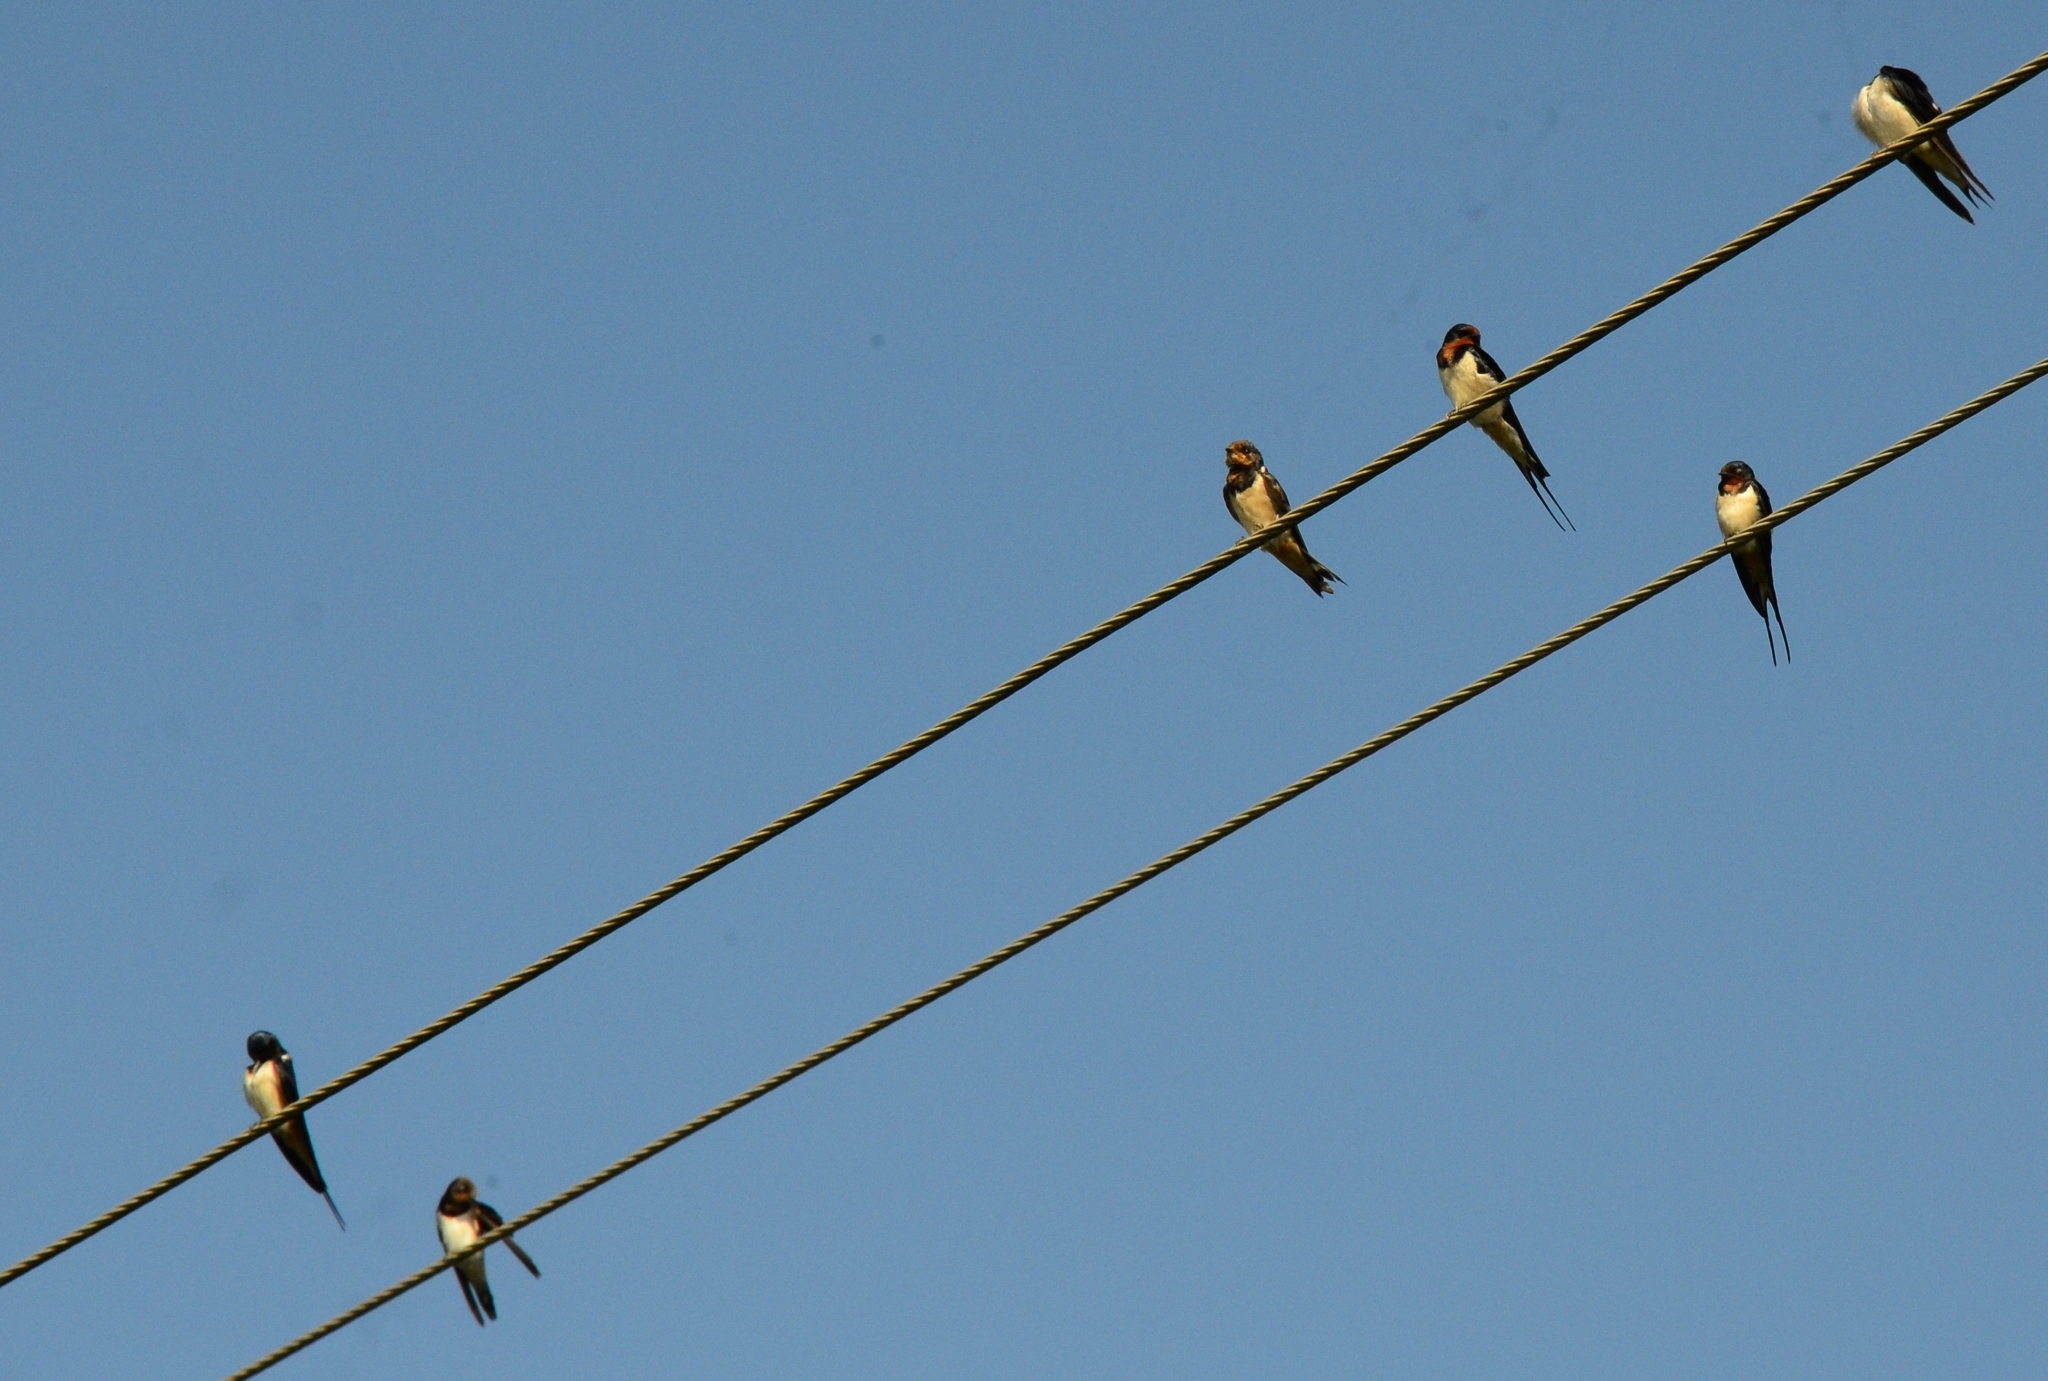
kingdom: Animalia
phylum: Chordata
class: Aves
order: Passeriformes
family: Hirundinidae
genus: Hirundo
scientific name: Hirundo rustica
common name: Barn swallow
